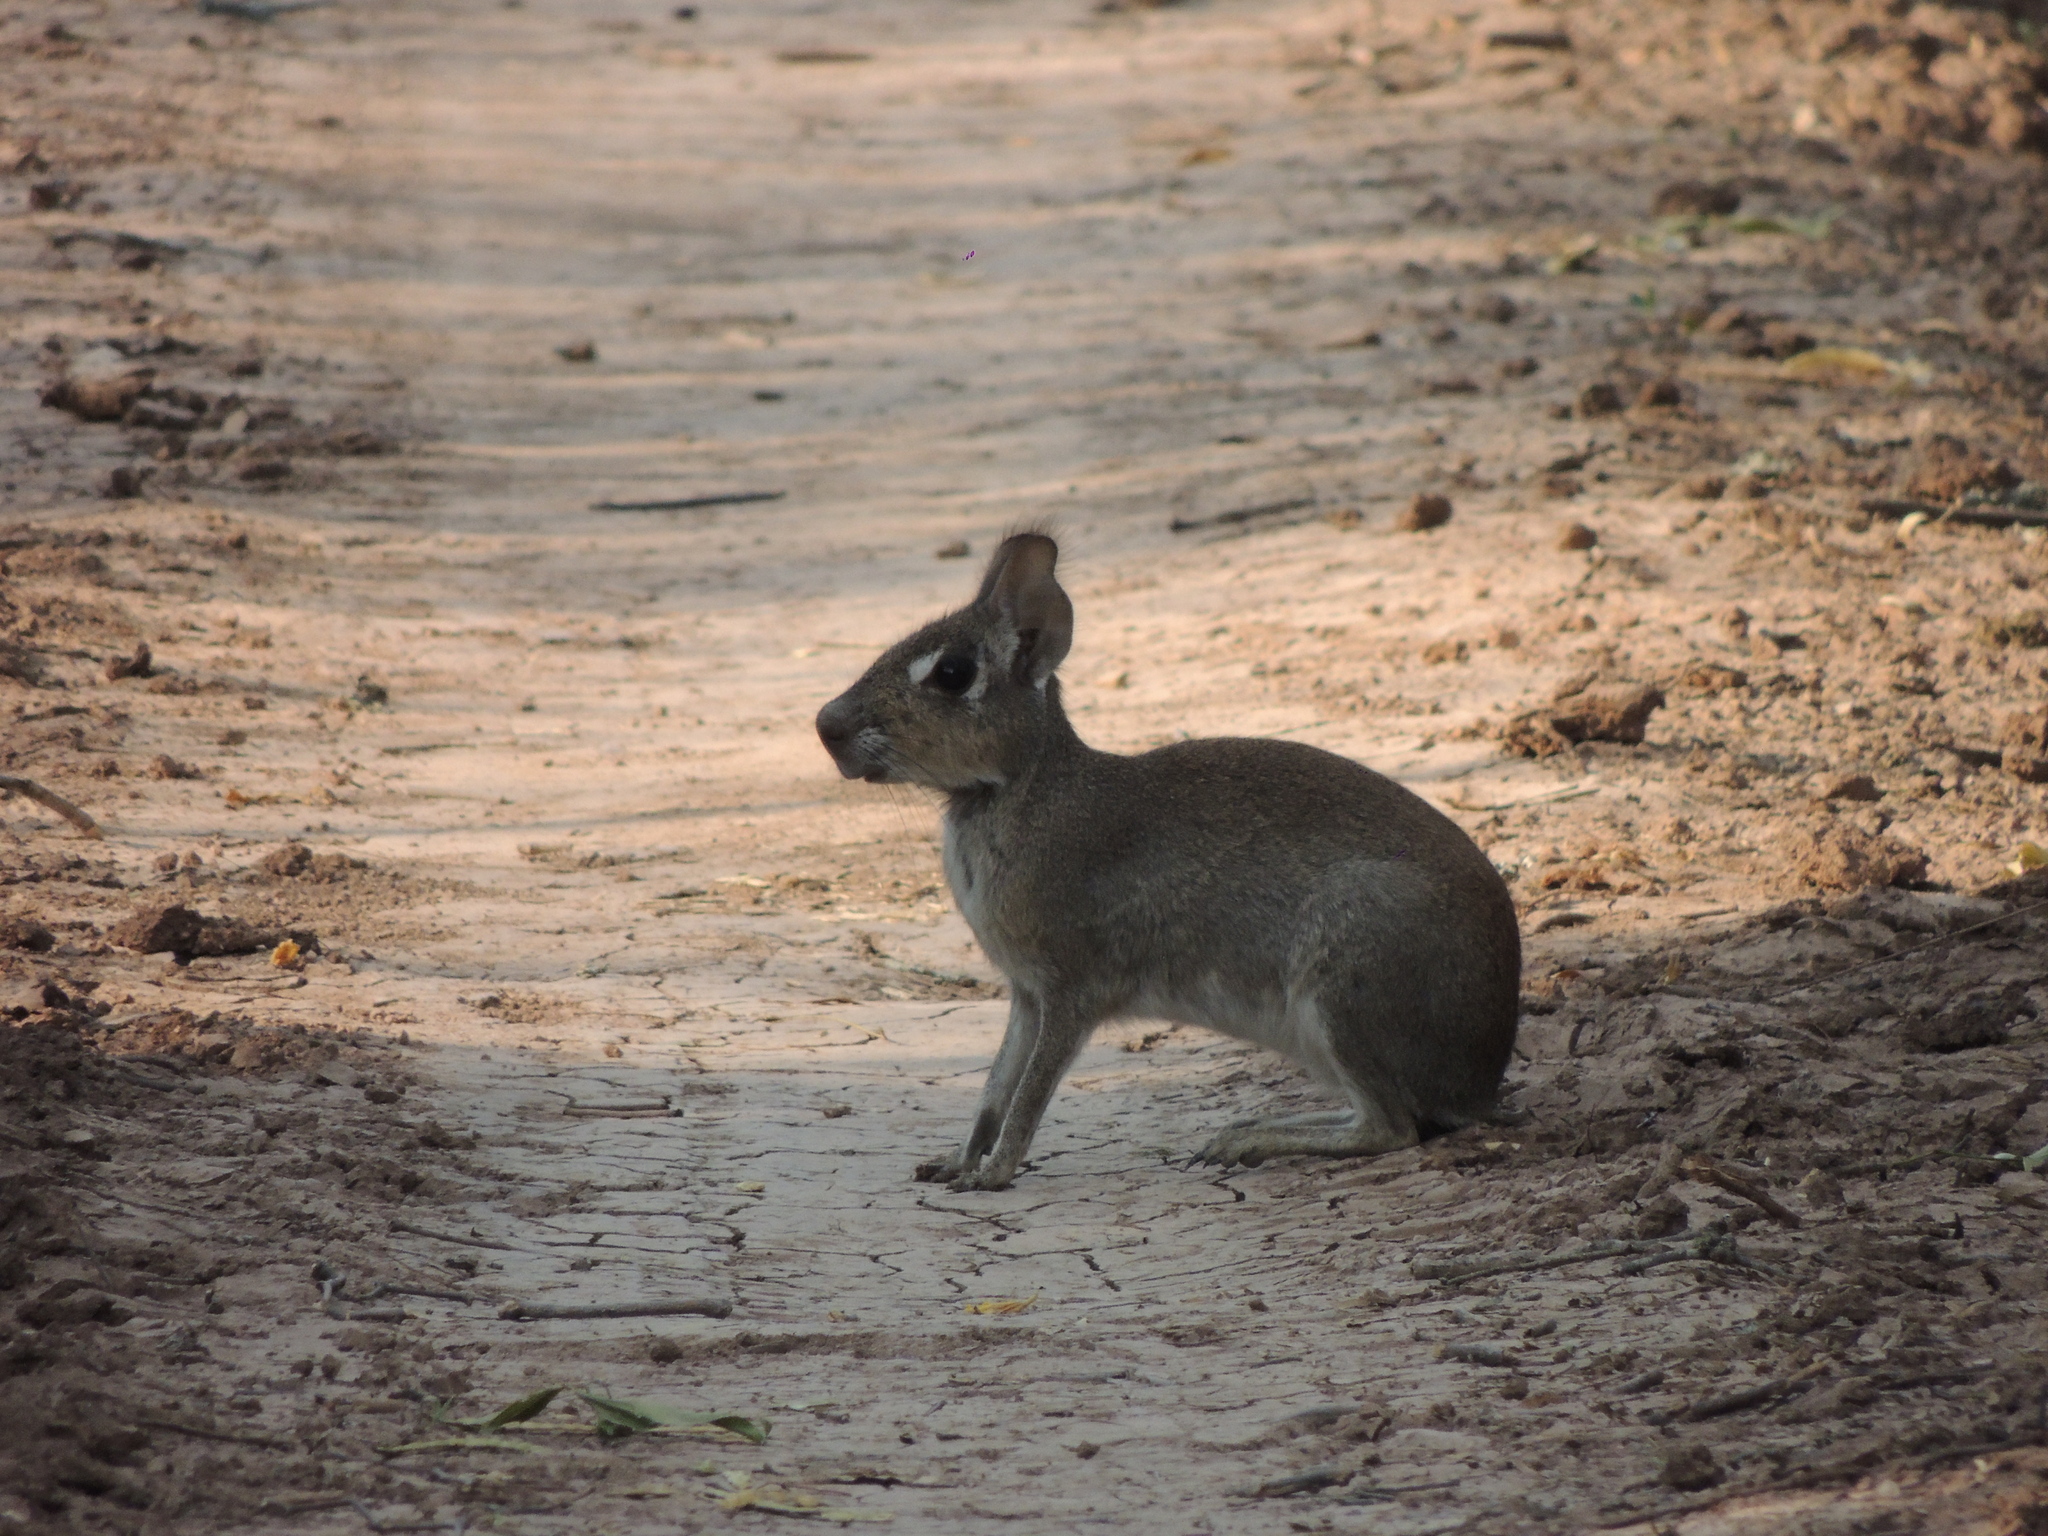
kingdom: Animalia
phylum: Chordata
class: Mammalia
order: Rodentia
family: Caviidae
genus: Dolichotis
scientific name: Dolichotis Pediolagus salinicola
